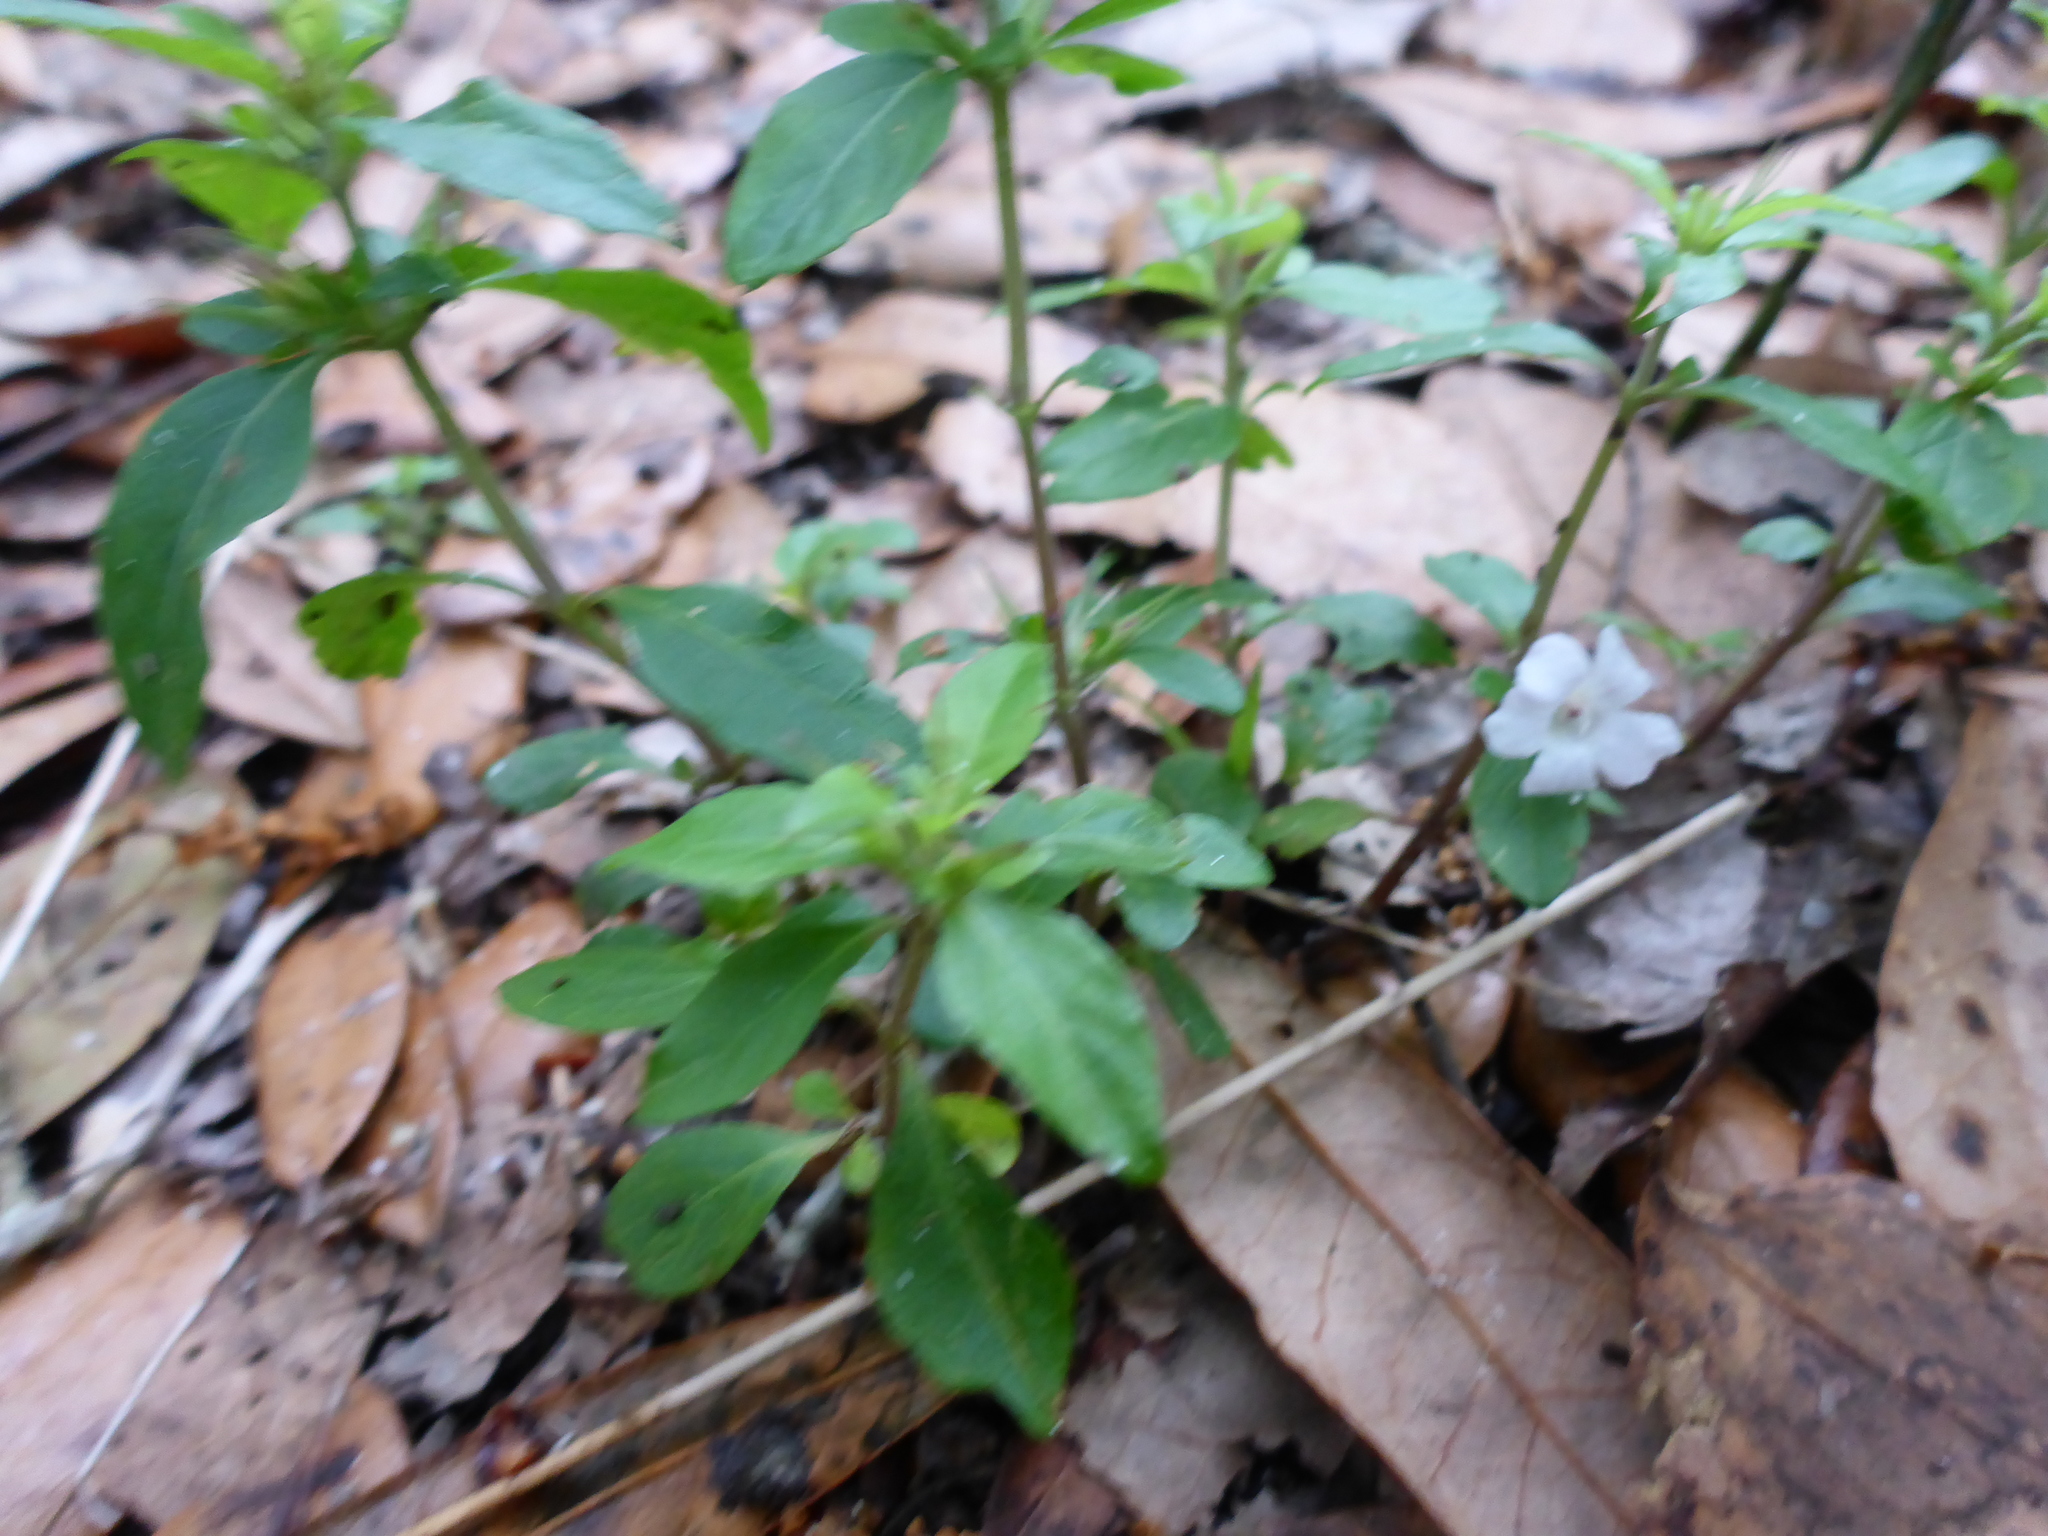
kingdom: Plantae
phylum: Tracheophyta
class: Magnoliopsida
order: Lamiales
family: Acanthaceae
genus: Ruellia
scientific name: Ruellia caroliniensis
